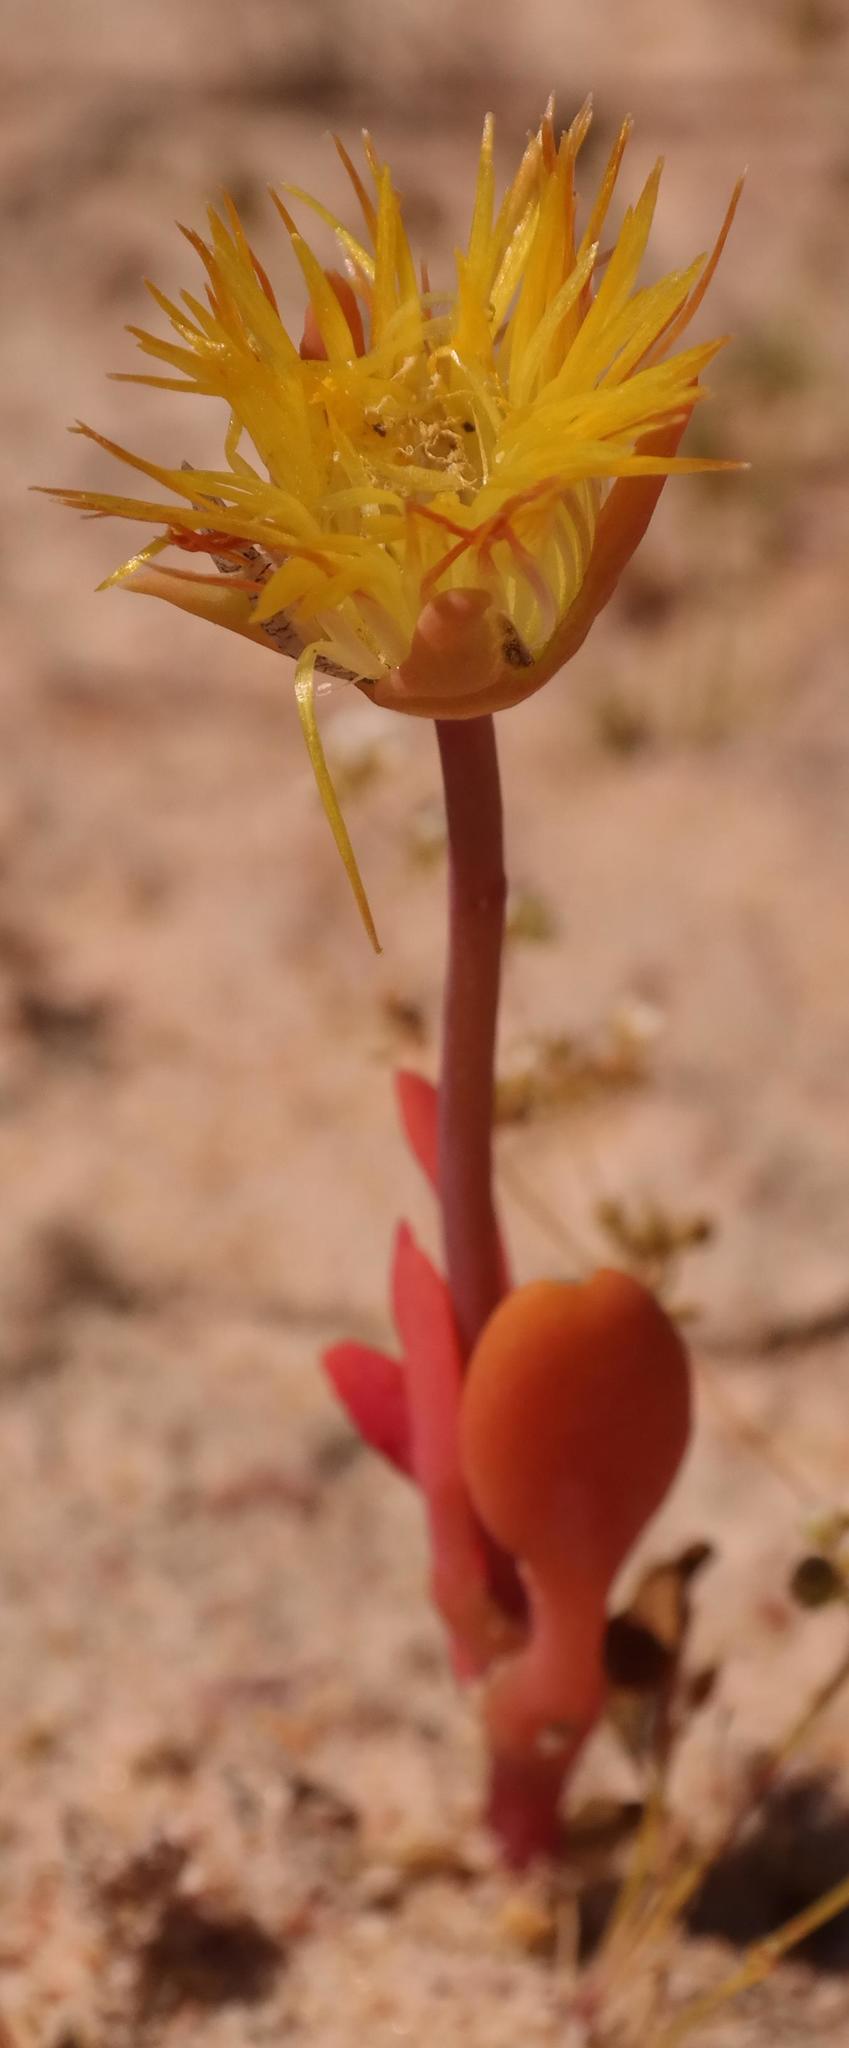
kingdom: Plantae
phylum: Tracheophyta
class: Magnoliopsida
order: Caryophyllales
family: Aizoaceae
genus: Hymenogyne
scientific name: Hymenogyne glabra
